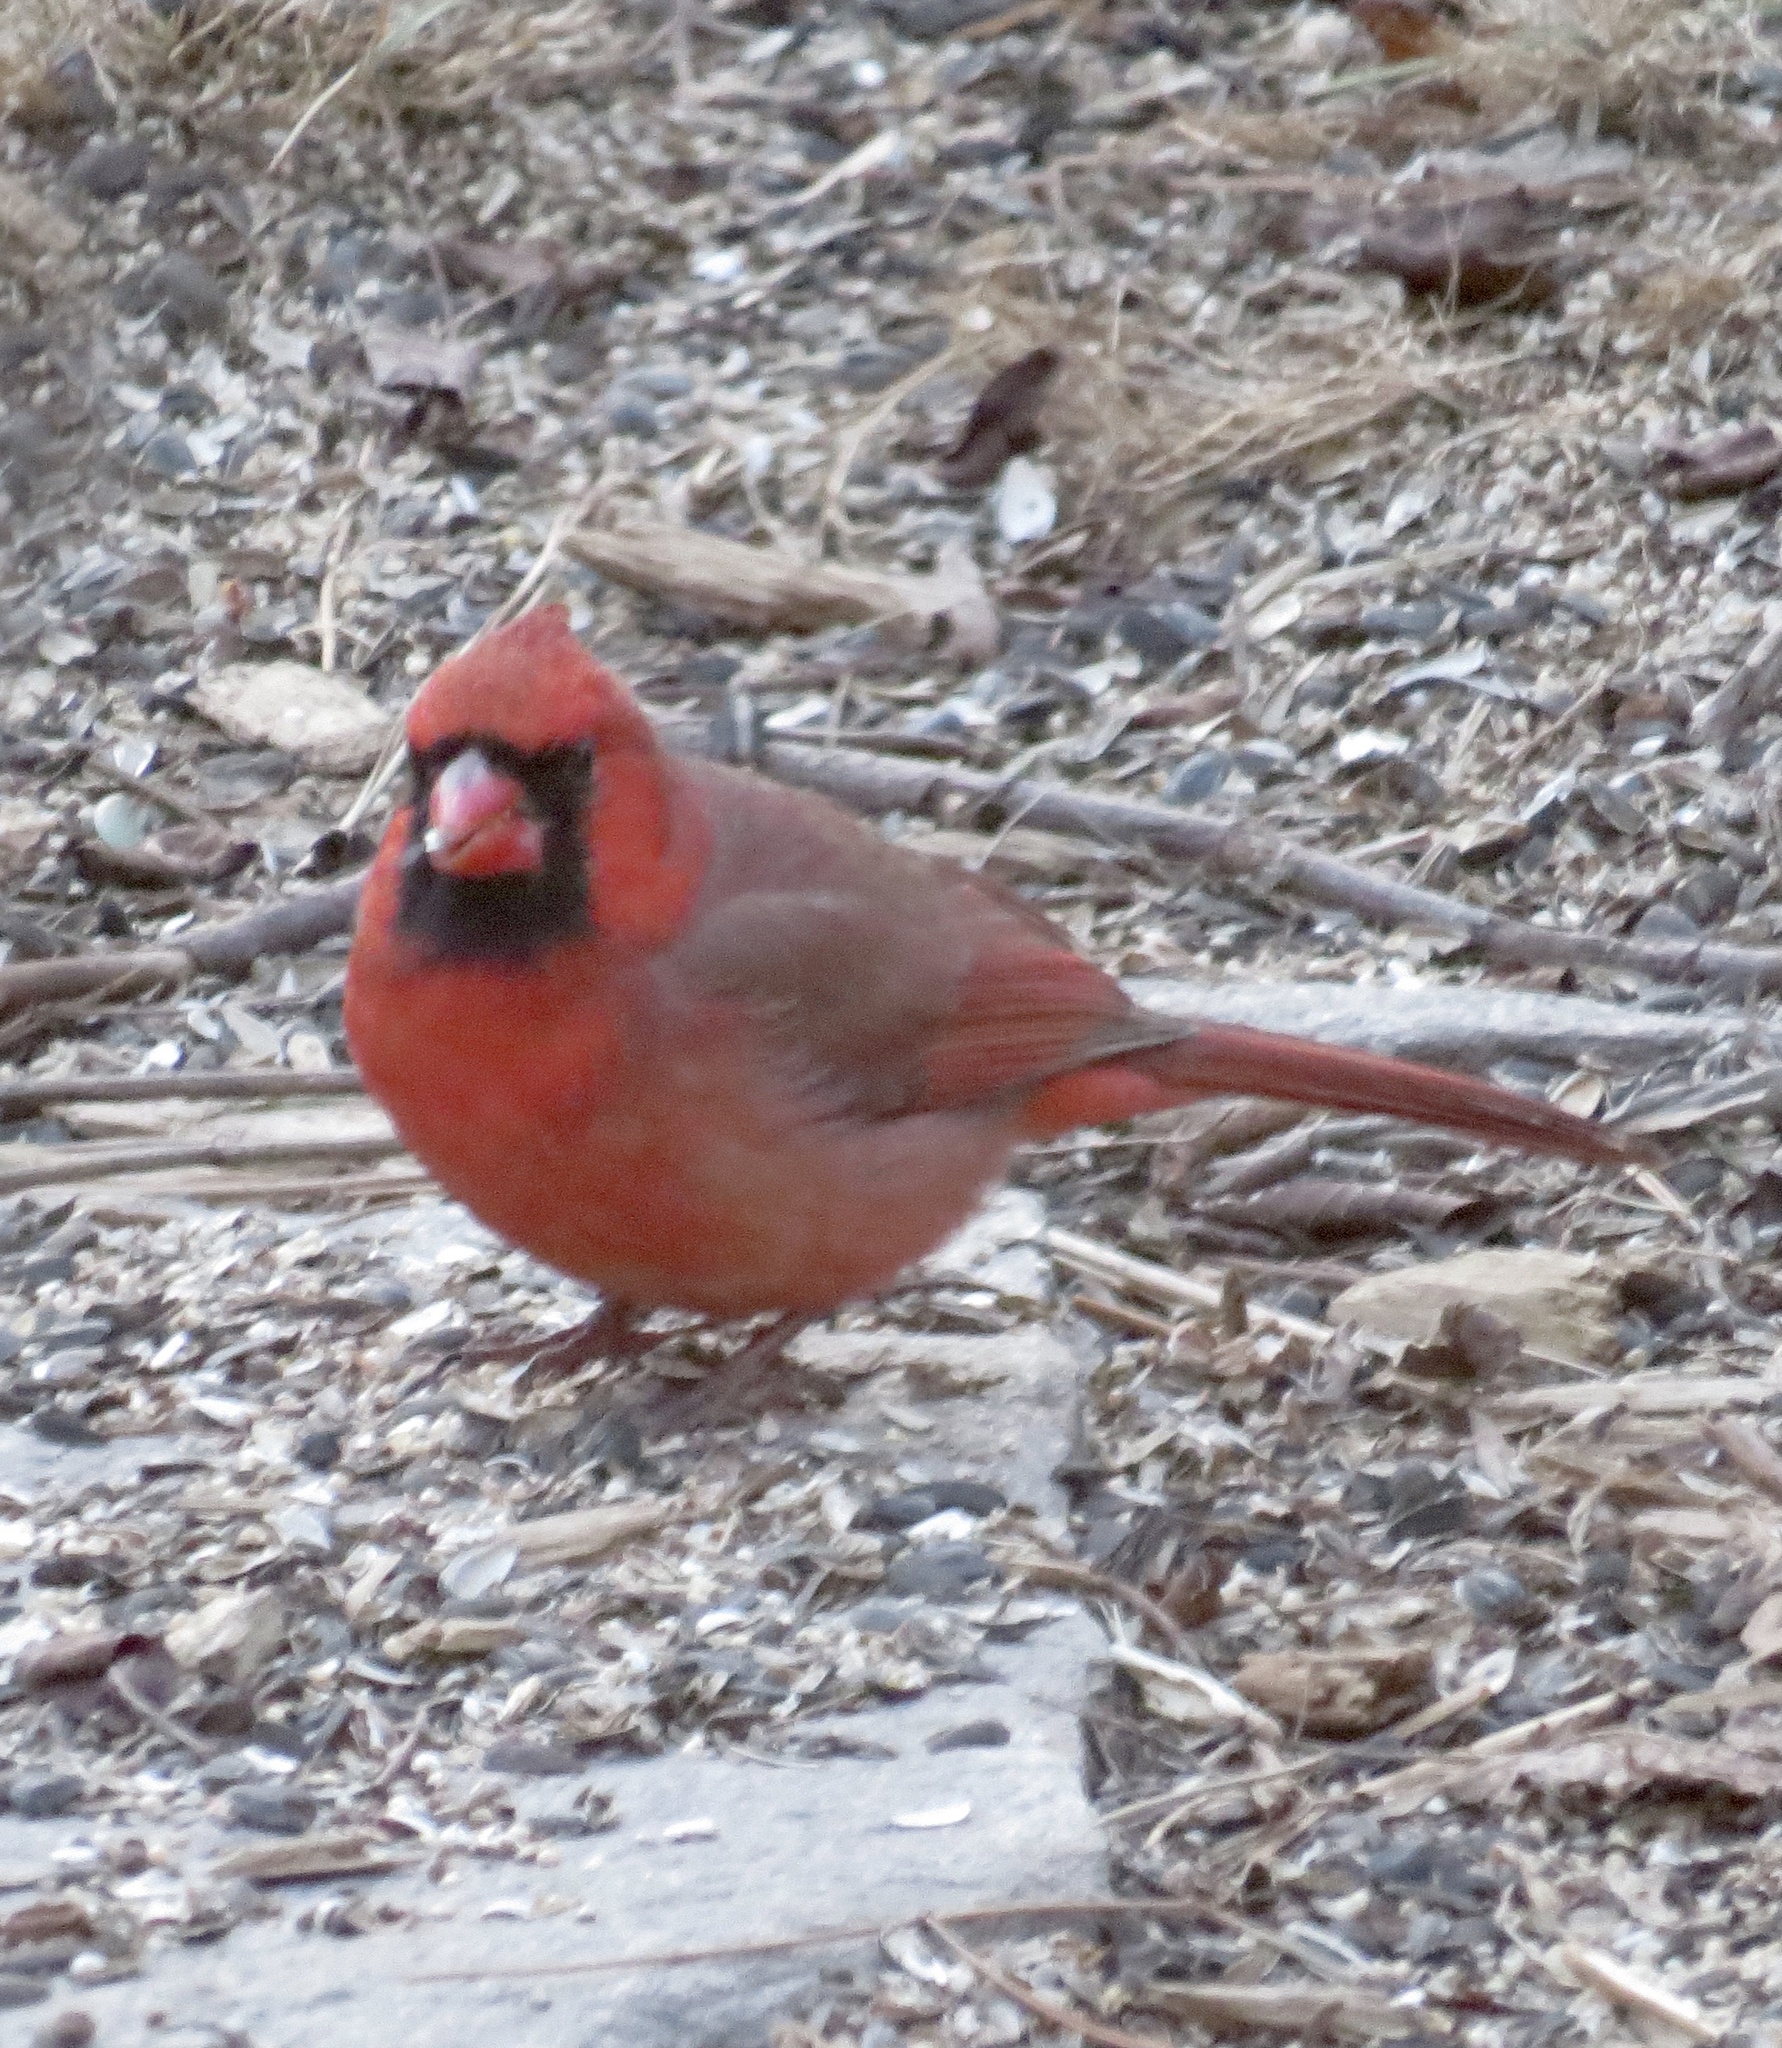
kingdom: Animalia
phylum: Chordata
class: Aves
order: Passeriformes
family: Cardinalidae
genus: Cardinalis
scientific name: Cardinalis cardinalis
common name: Northern cardinal
